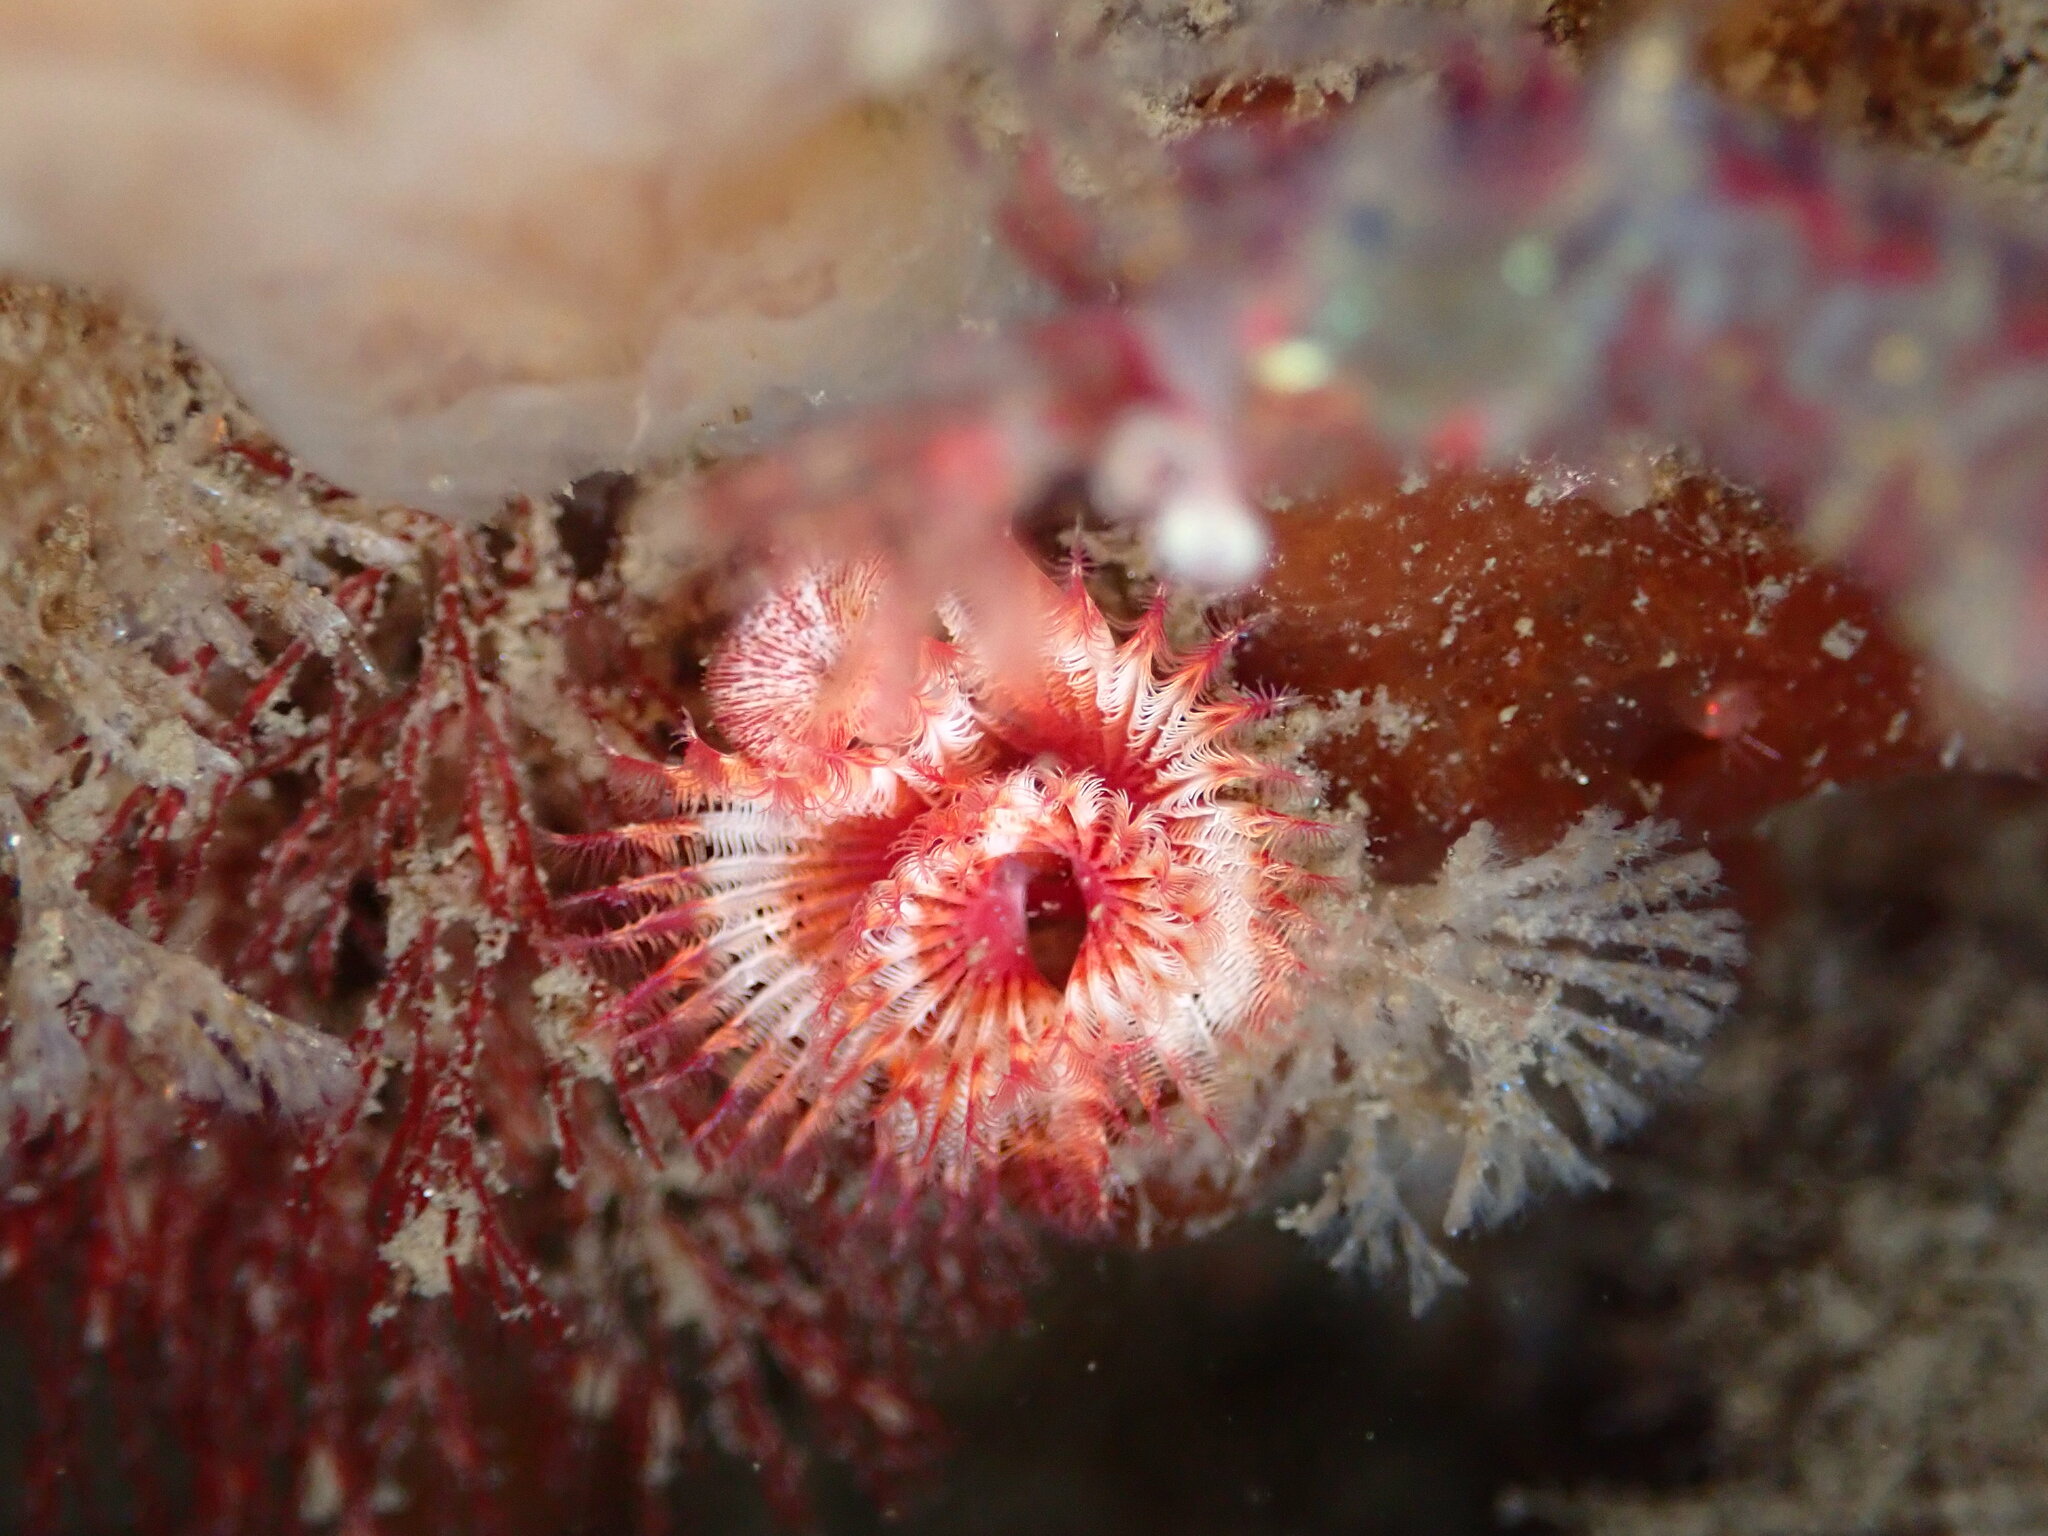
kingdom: Animalia
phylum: Annelida
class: Polychaeta
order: Sabellida
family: Serpulidae
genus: Serpula
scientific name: Serpula columbiana
